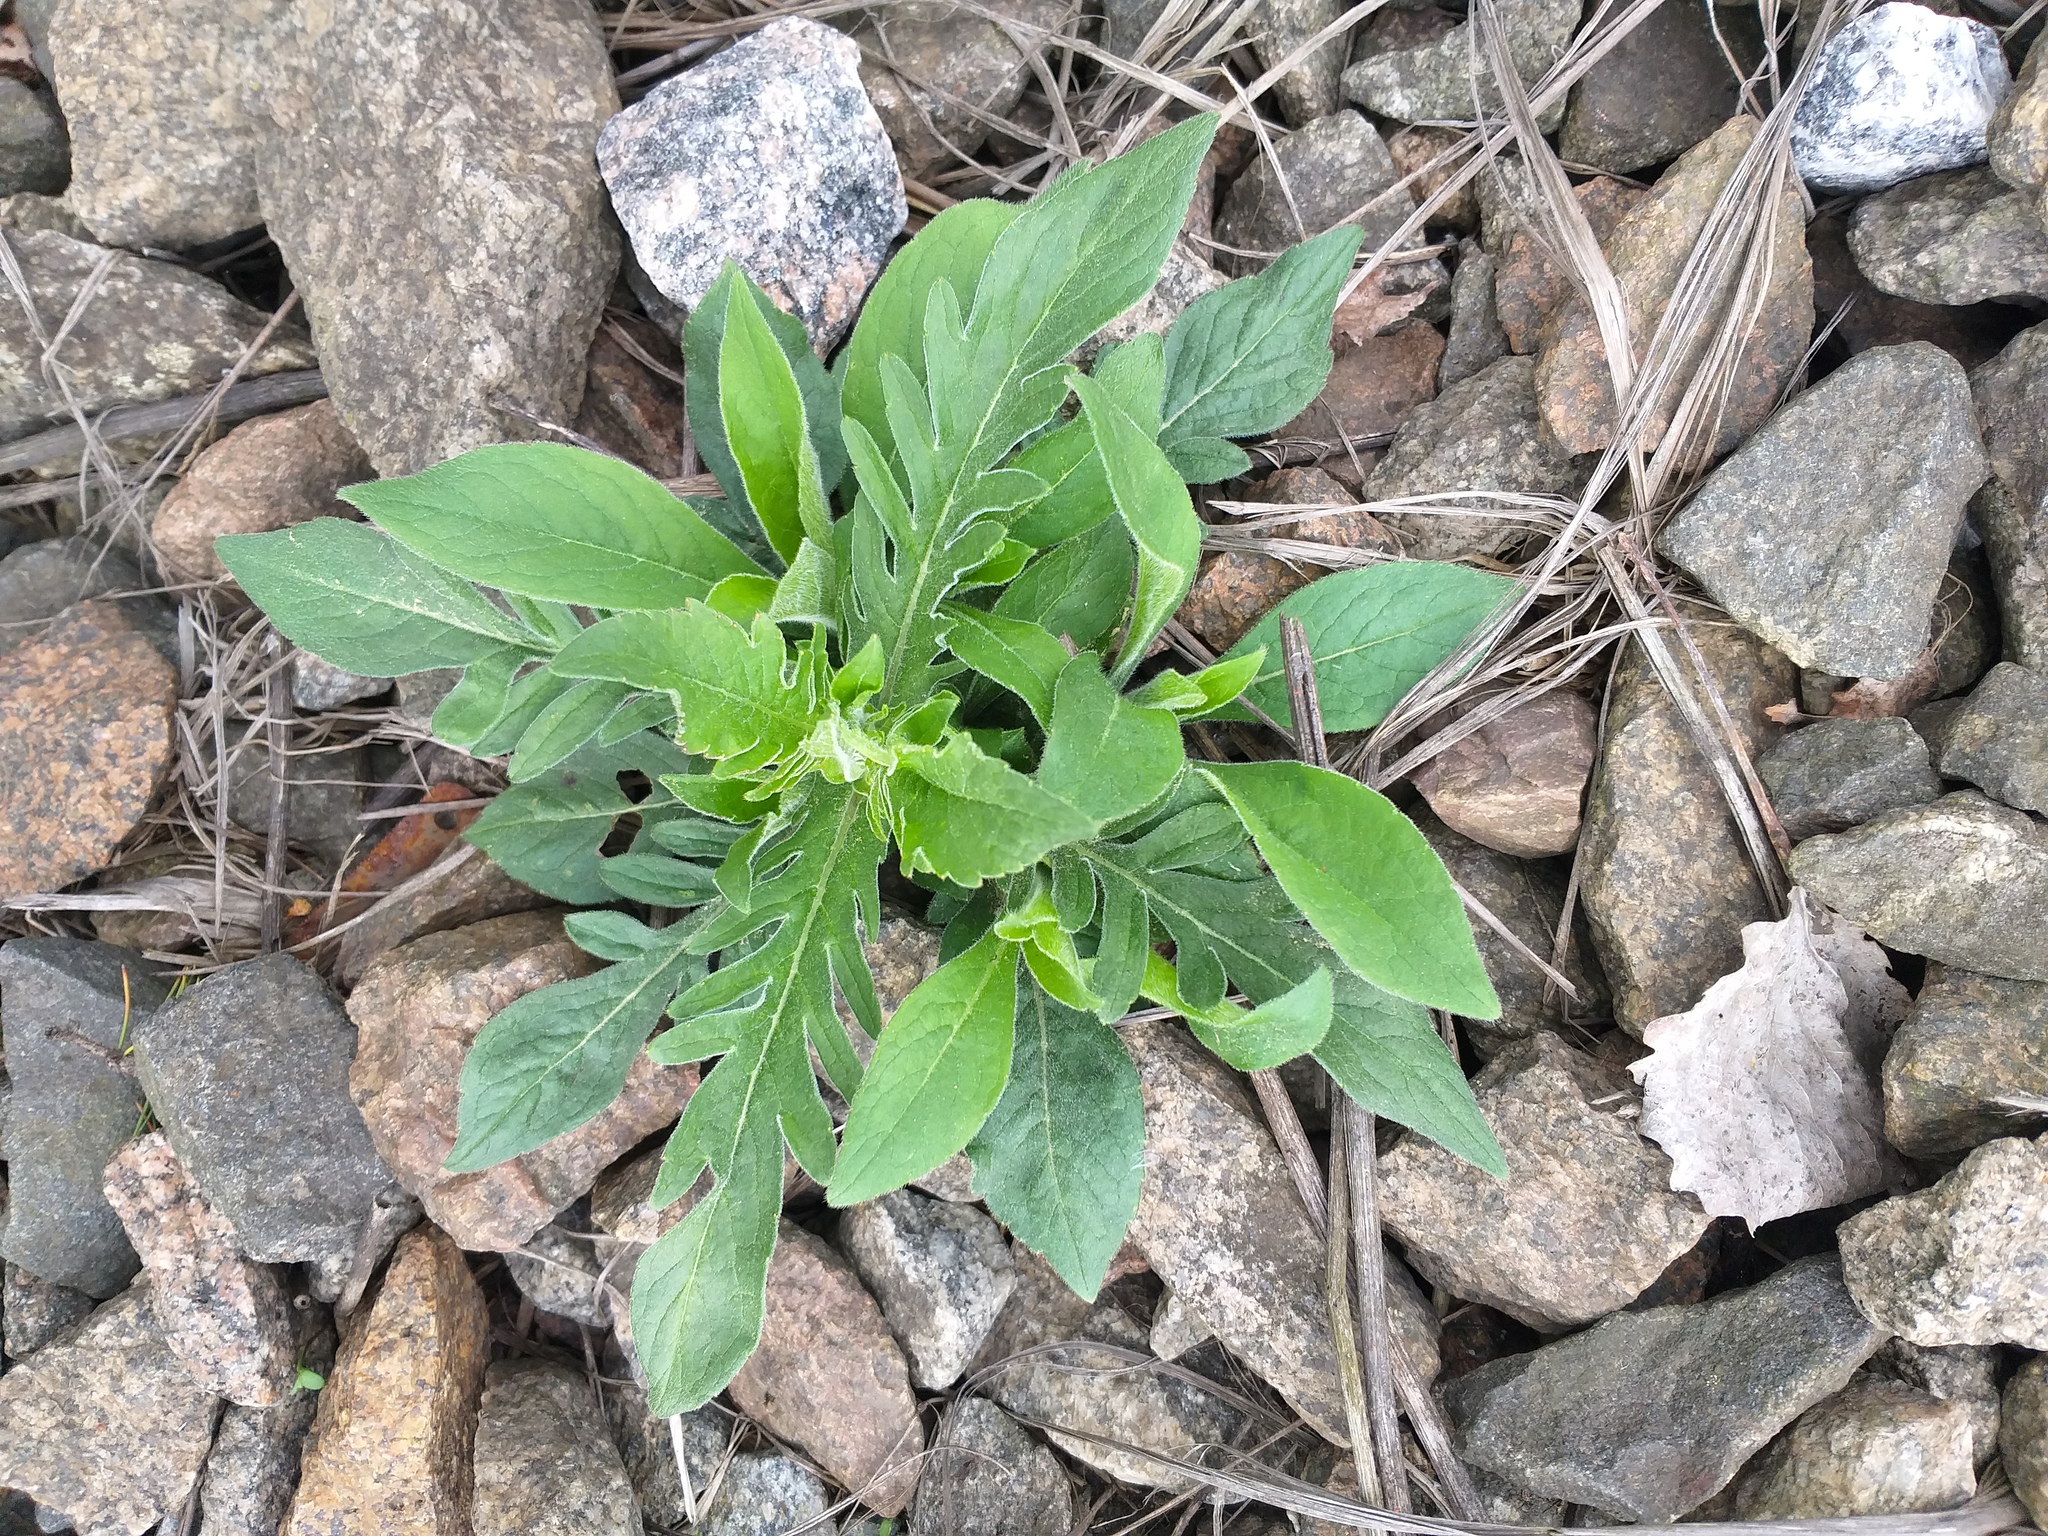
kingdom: Plantae
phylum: Tracheophyta
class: Magnoliopsida
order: Dipsacales
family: Caprifoliaceae
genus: Knautia
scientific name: Knautia arvensis
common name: Field scabiosa
